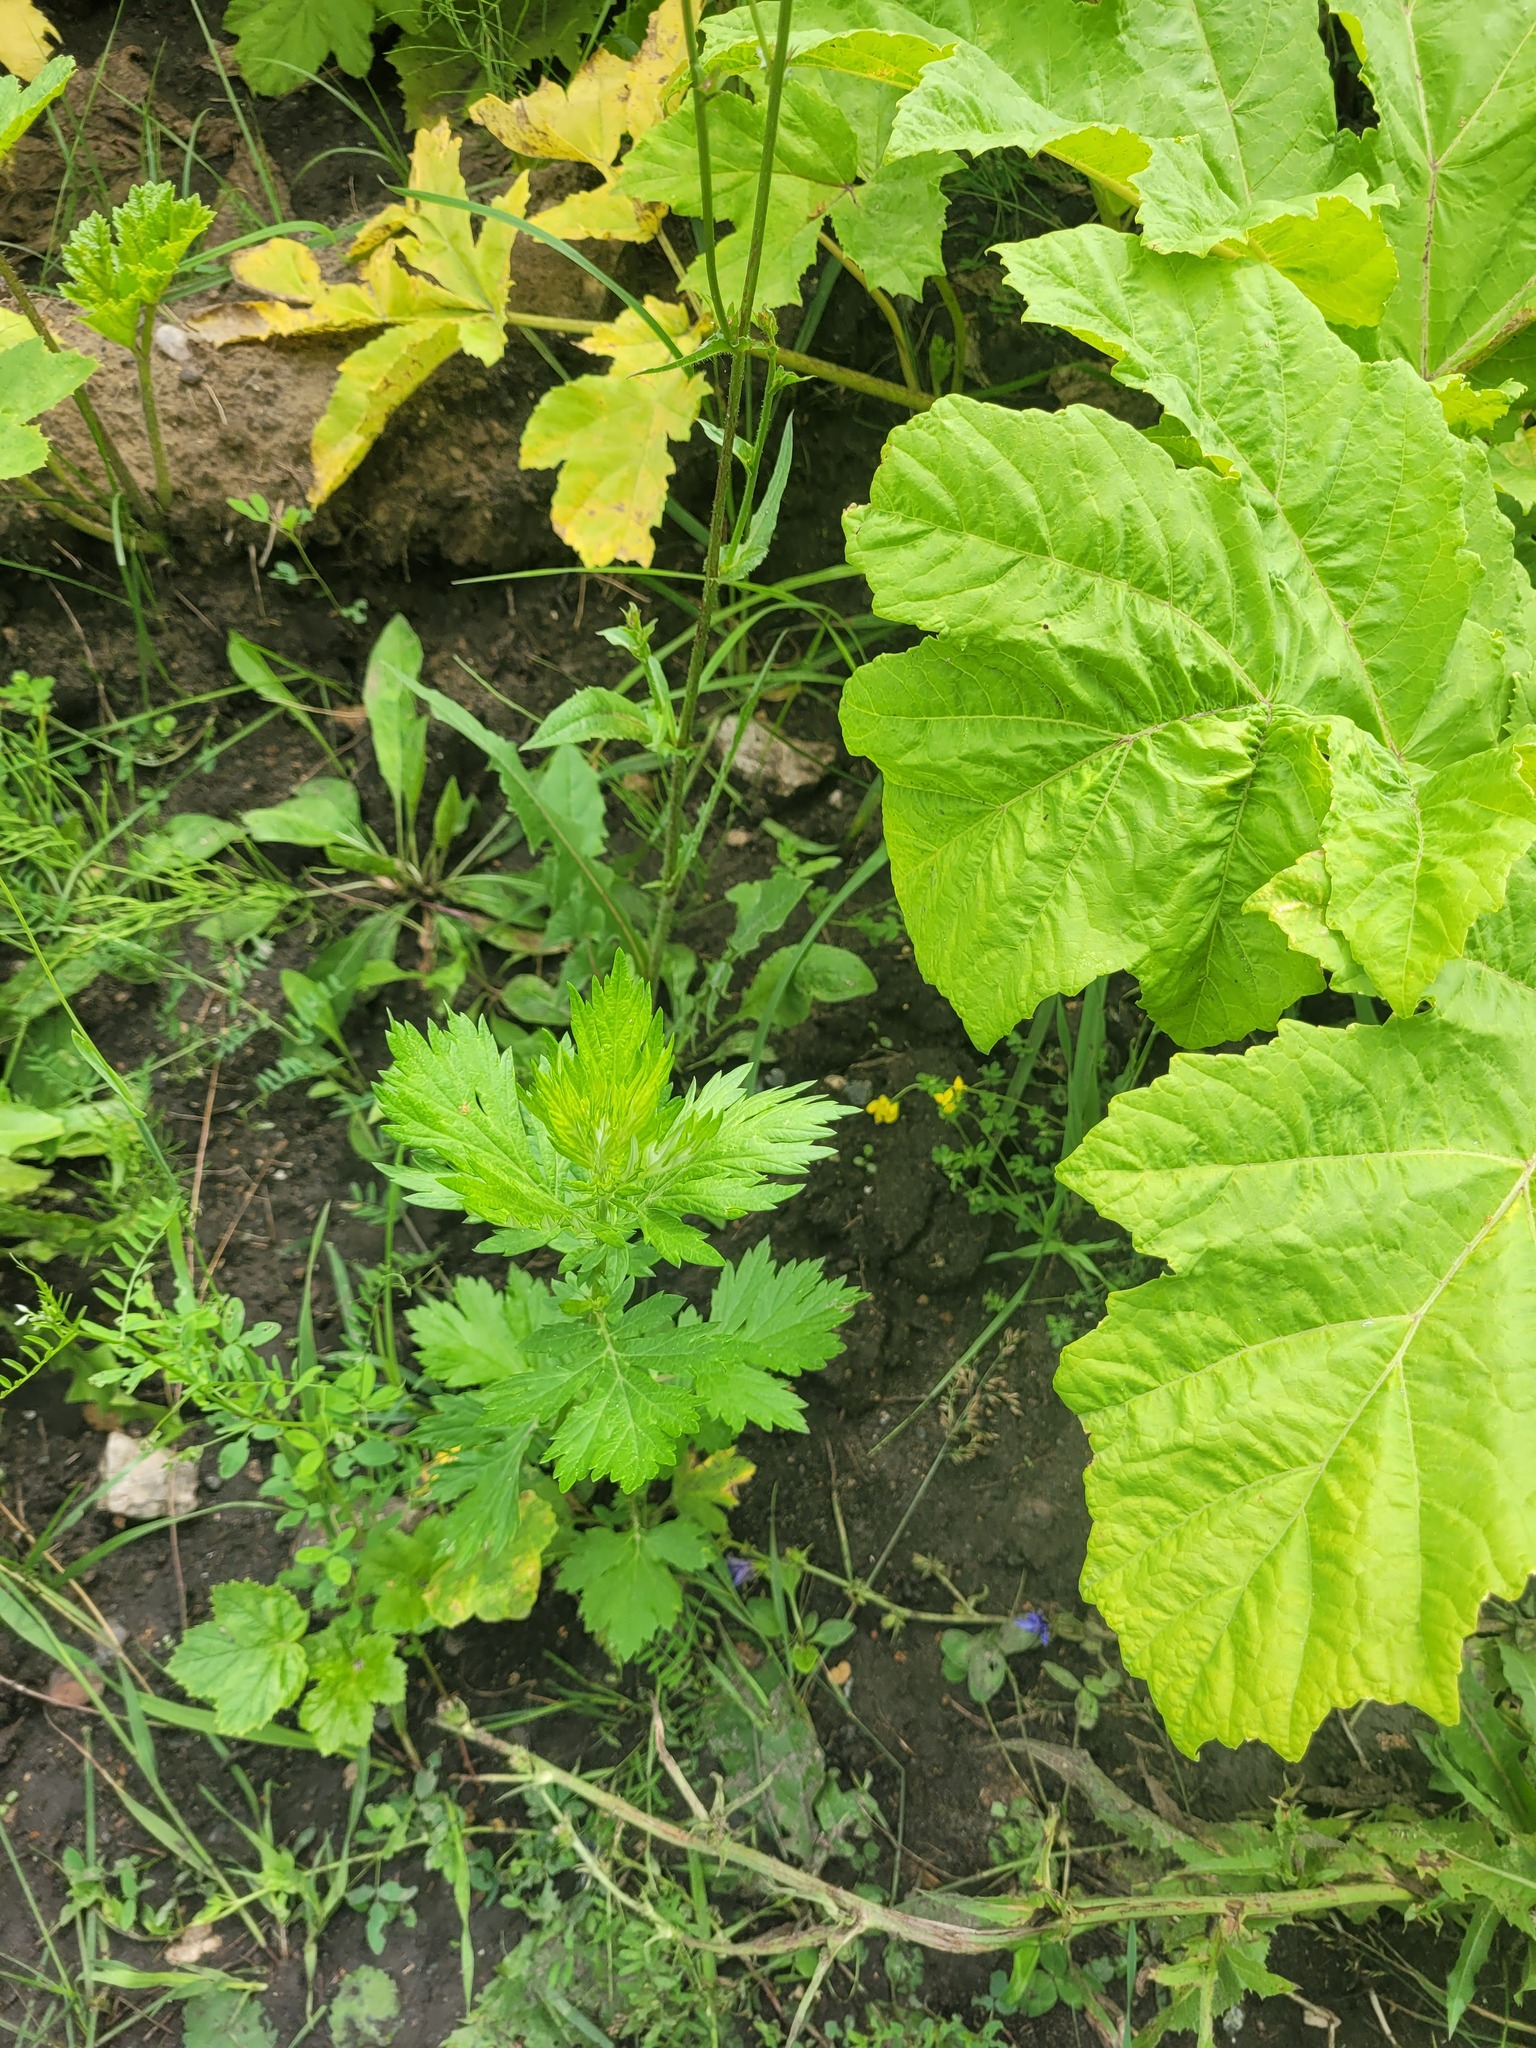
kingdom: Plantae
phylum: Tracheophyta
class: Magnoliopsida
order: Asterales
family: Asteraceae
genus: Artemisia
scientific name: Artemisia vulgaris
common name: Mugwort
